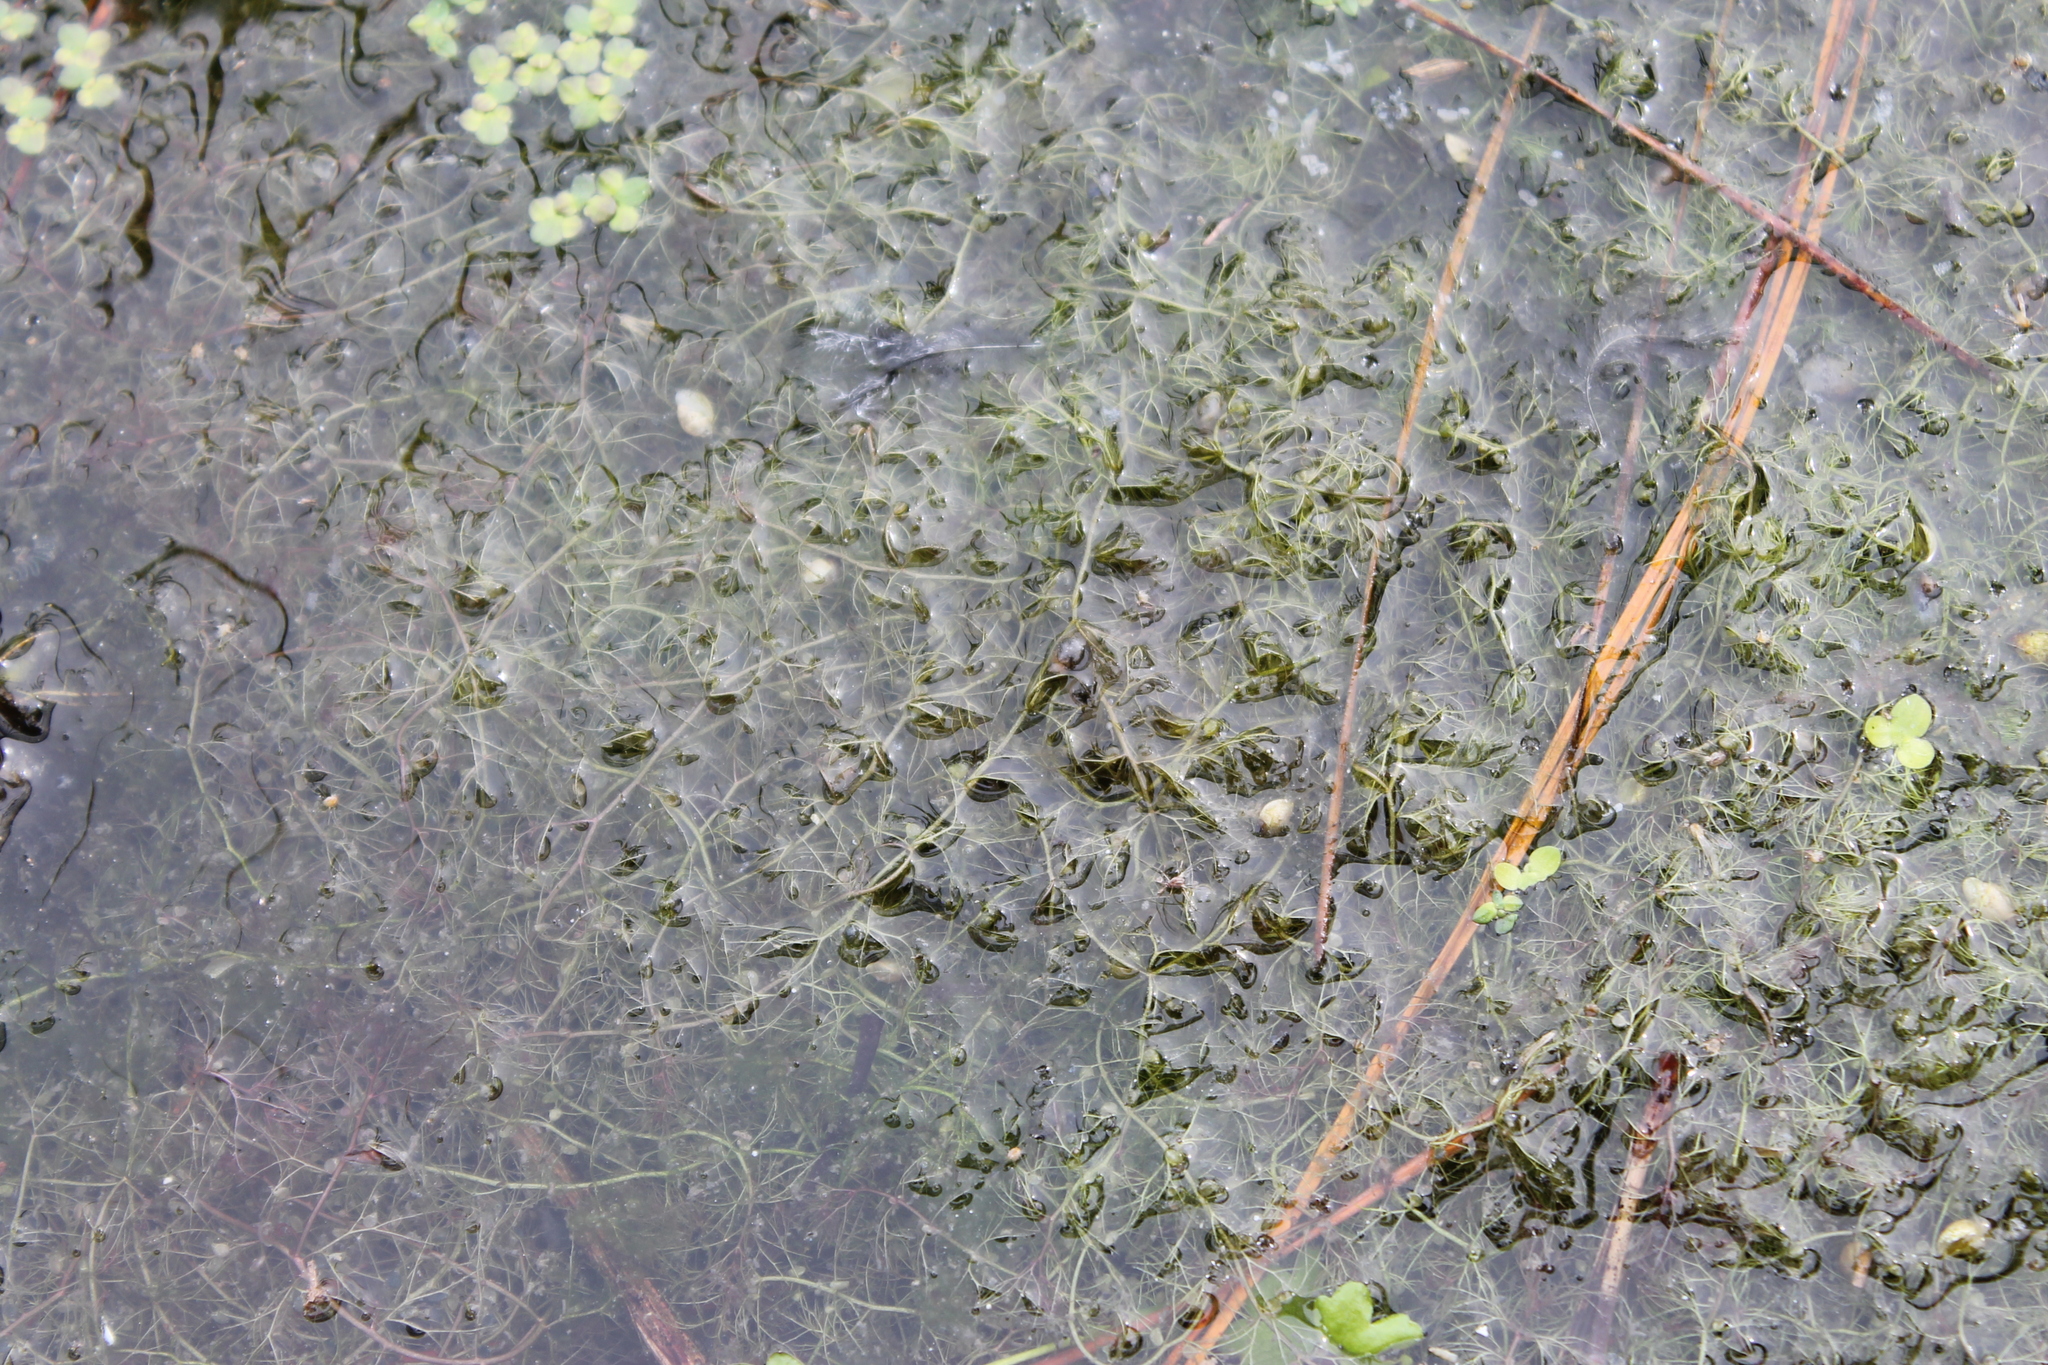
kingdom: Plantae
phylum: Tracheophyta
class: Magnoliopsida
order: Lamiales
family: Lentibulariaceae
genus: Utricularia
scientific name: Utricularia gibba
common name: Humped bladderwort
